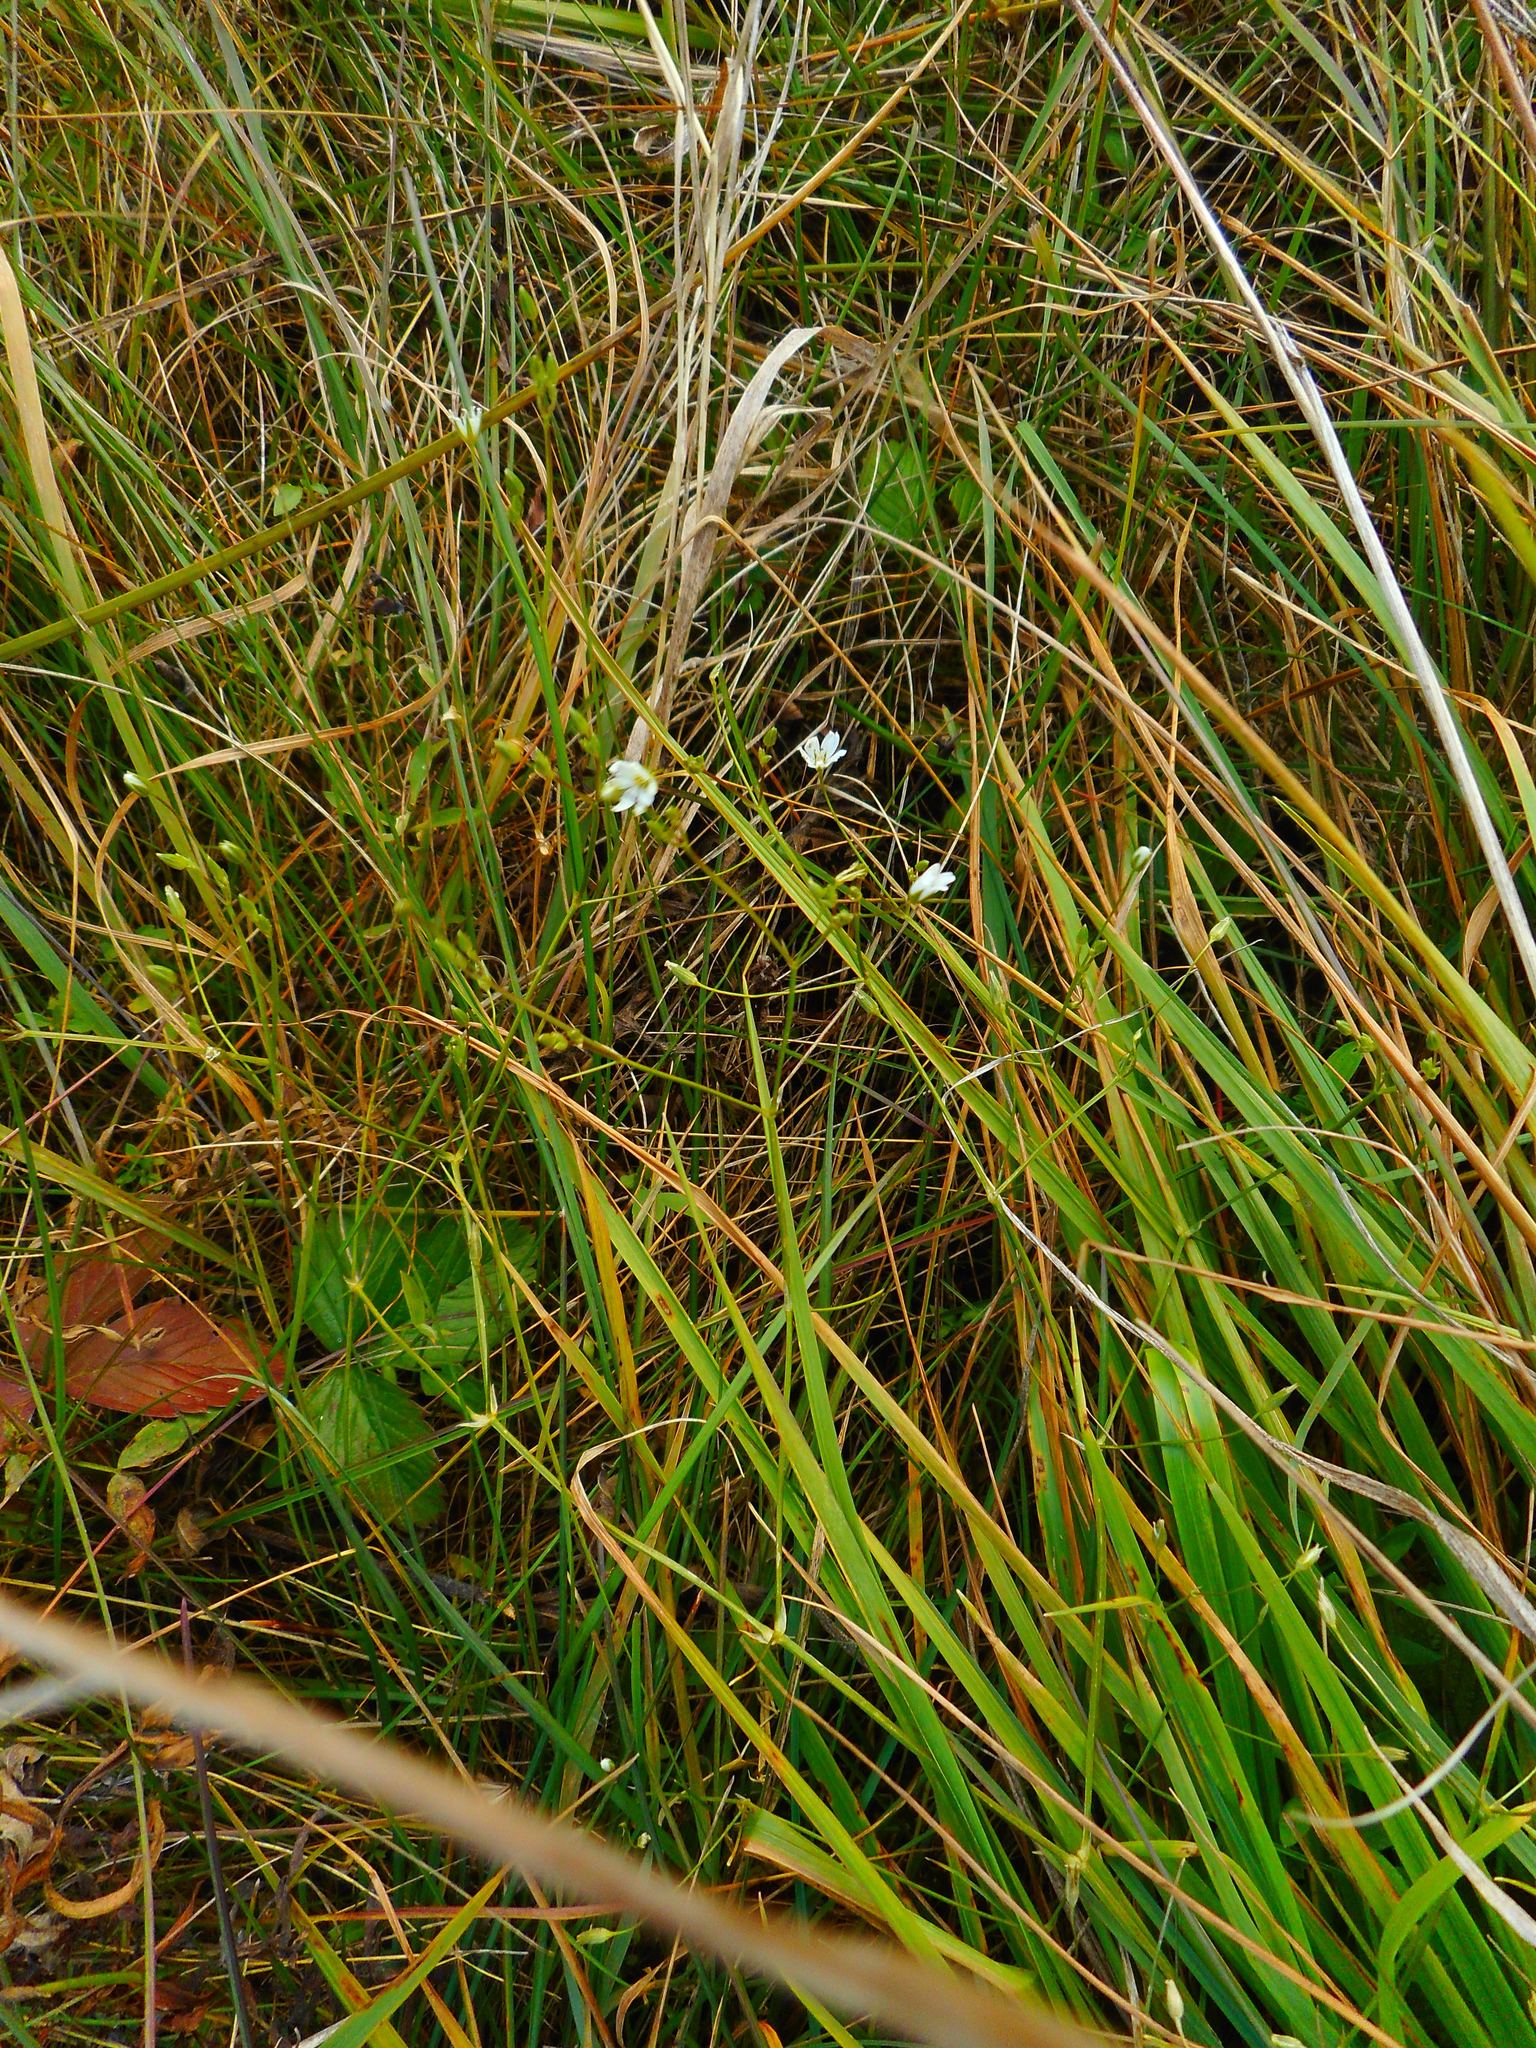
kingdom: Plantae
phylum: Tracheophyta
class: Magnoliopsida
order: Caryophyllales
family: Caryophyllaceae
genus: Stellaria
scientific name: Stellaria graminea
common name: Grass-like starwort
